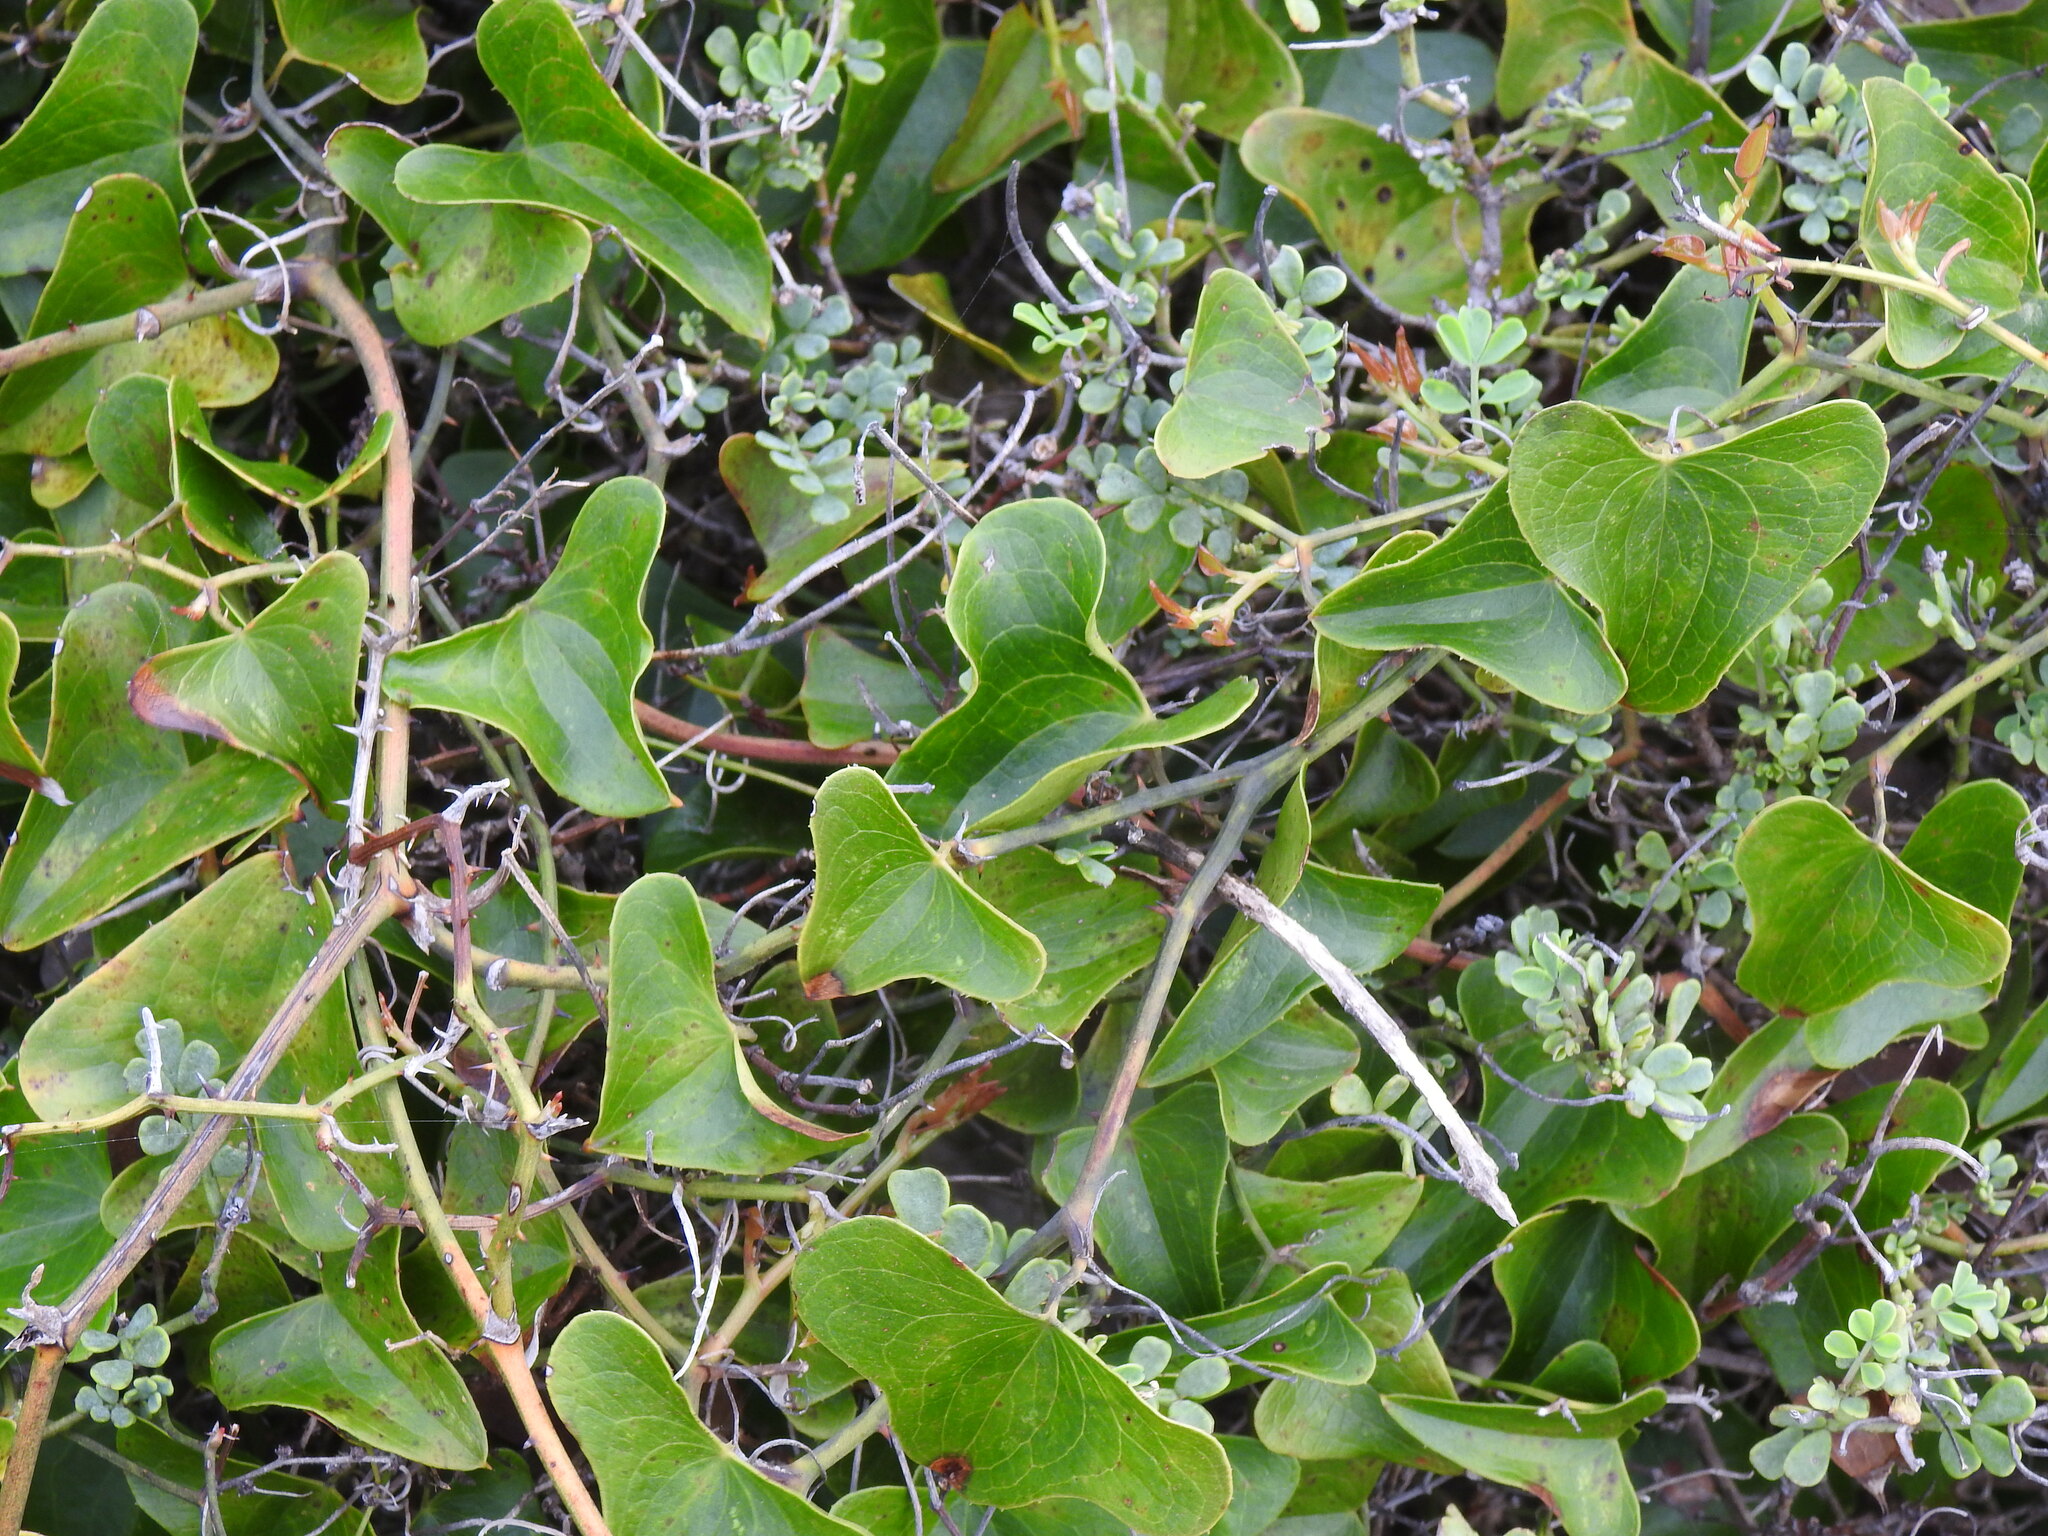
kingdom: Plantae
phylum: Tracheophyta
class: Liliopsida
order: Liliales
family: Smilacaceae
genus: Smilax
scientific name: Smilax aspera
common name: Common smilax
